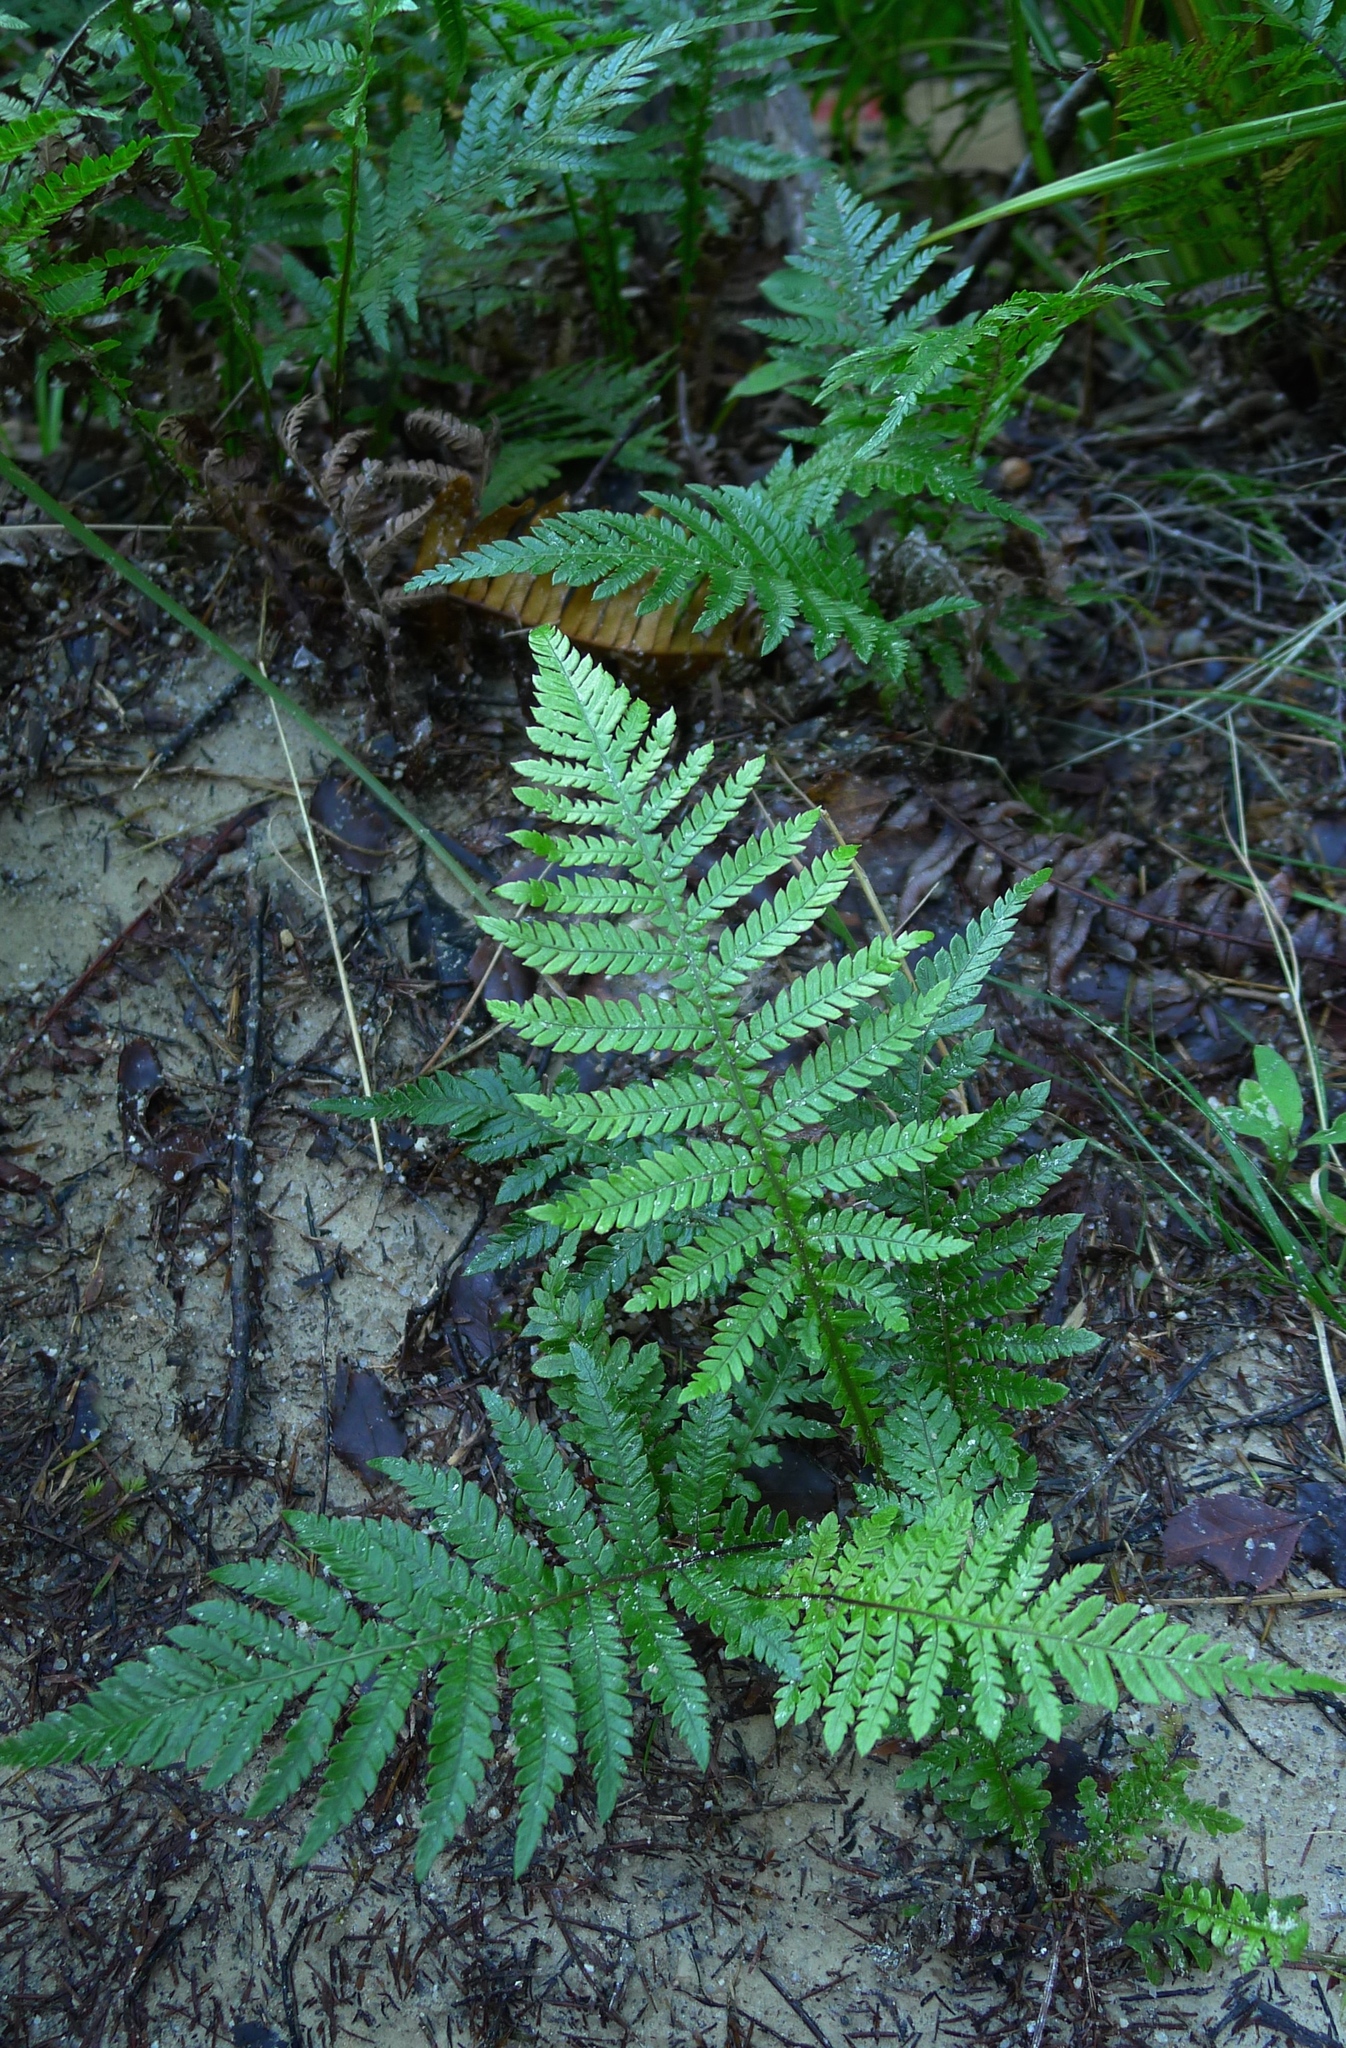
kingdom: Plantae
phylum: Tracheophyta
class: Polypodiopsida
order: Polypodiales
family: Blechnaceae
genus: Diploblechnum
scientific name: Diploblechnum fraseri
